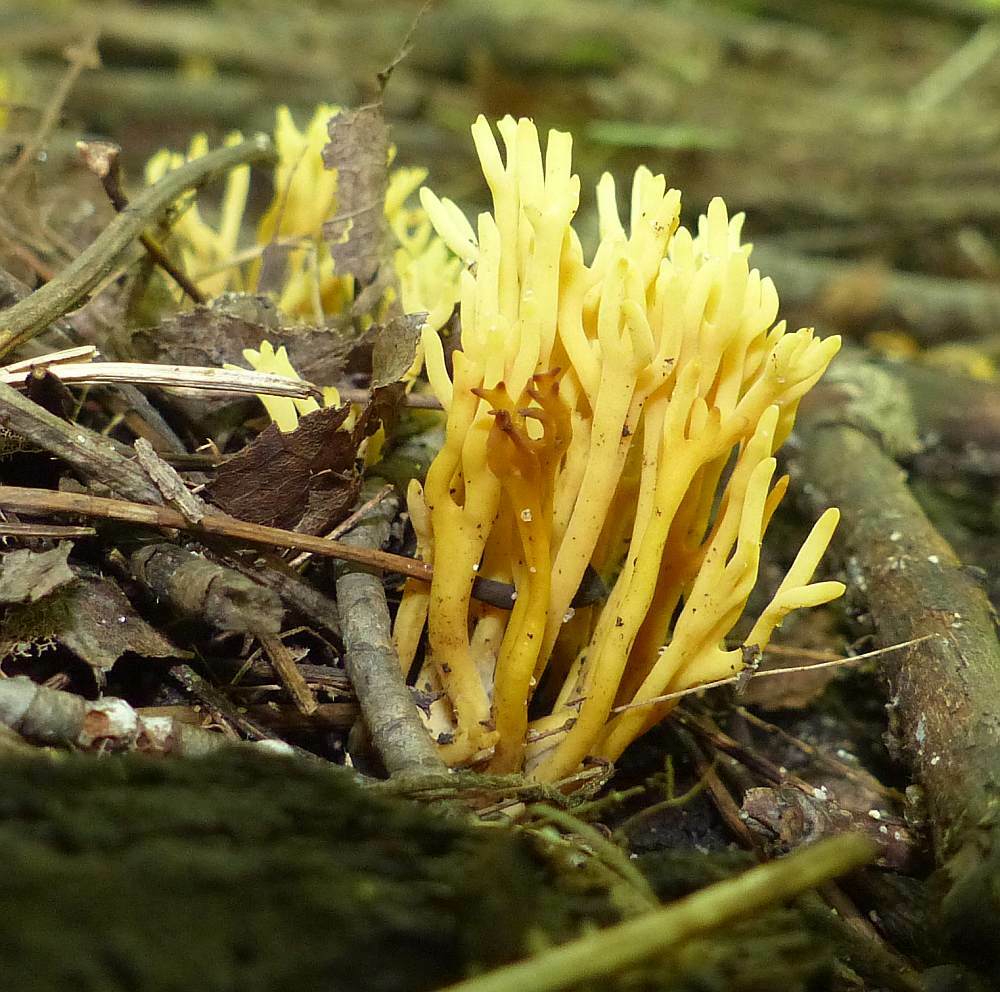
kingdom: Fungi
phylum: Basidiomycota
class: Agaricomycetes
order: Agaricales
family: Clavariaceae
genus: Clavulinopsis
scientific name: Clavulinopsis corniculata
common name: Meadow coral
